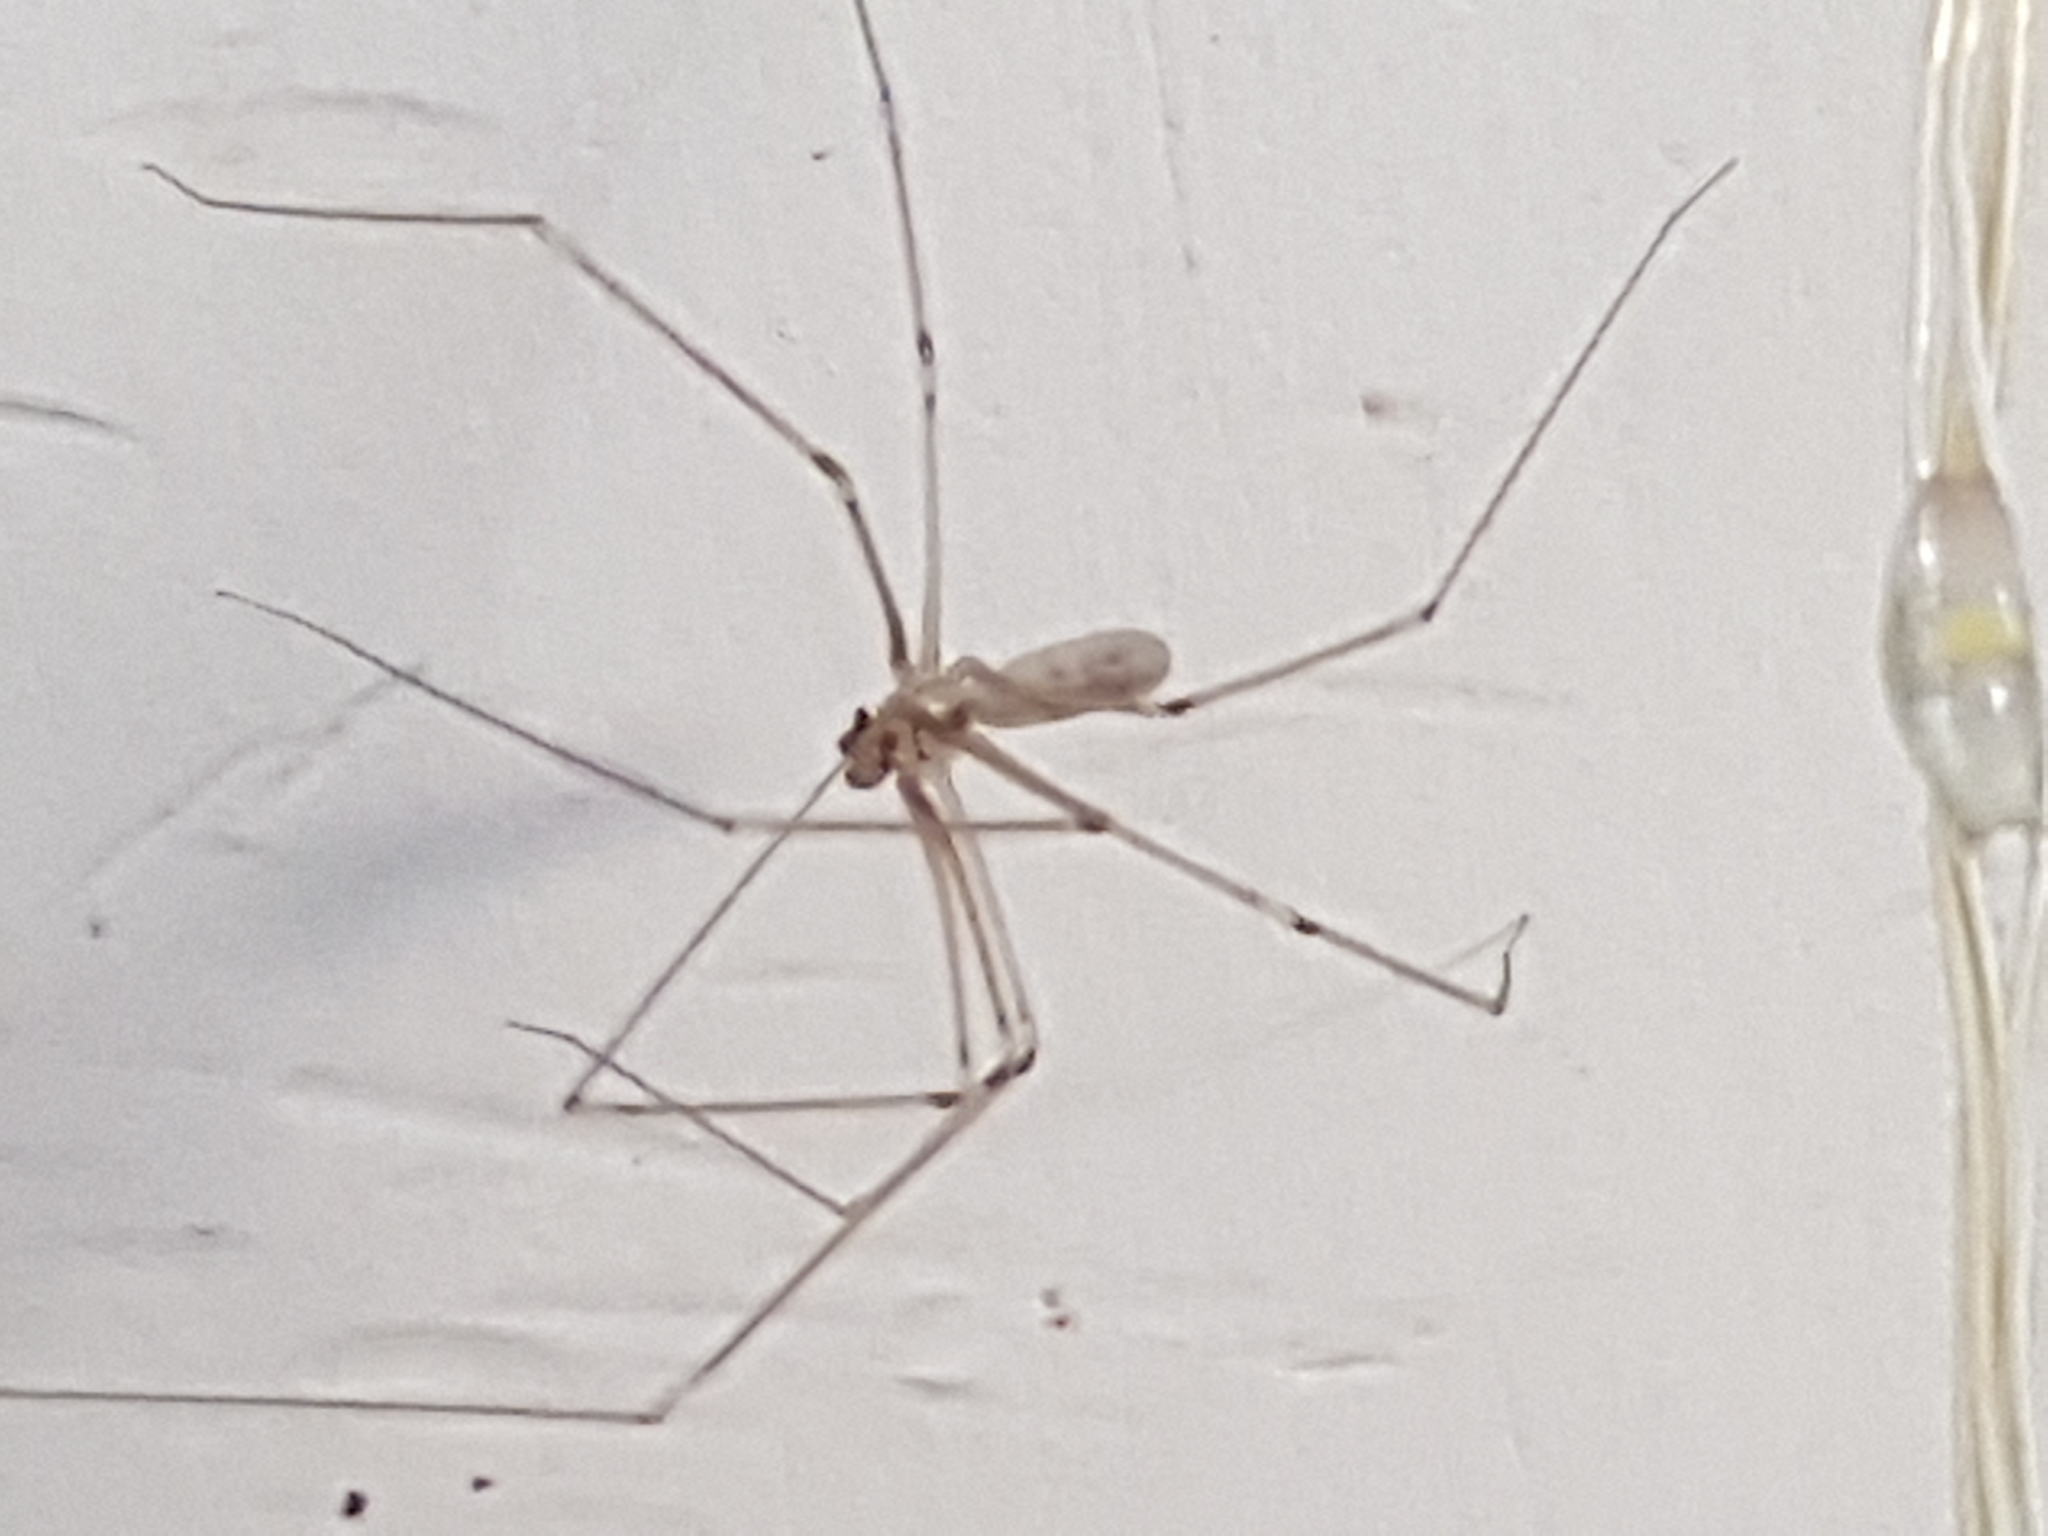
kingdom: Animalia
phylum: Arthropoda
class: Arachnida
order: Araneae
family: Pholcidae
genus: Pholcus
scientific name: Pholcus phalangioides
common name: Longbodied cellar spider
